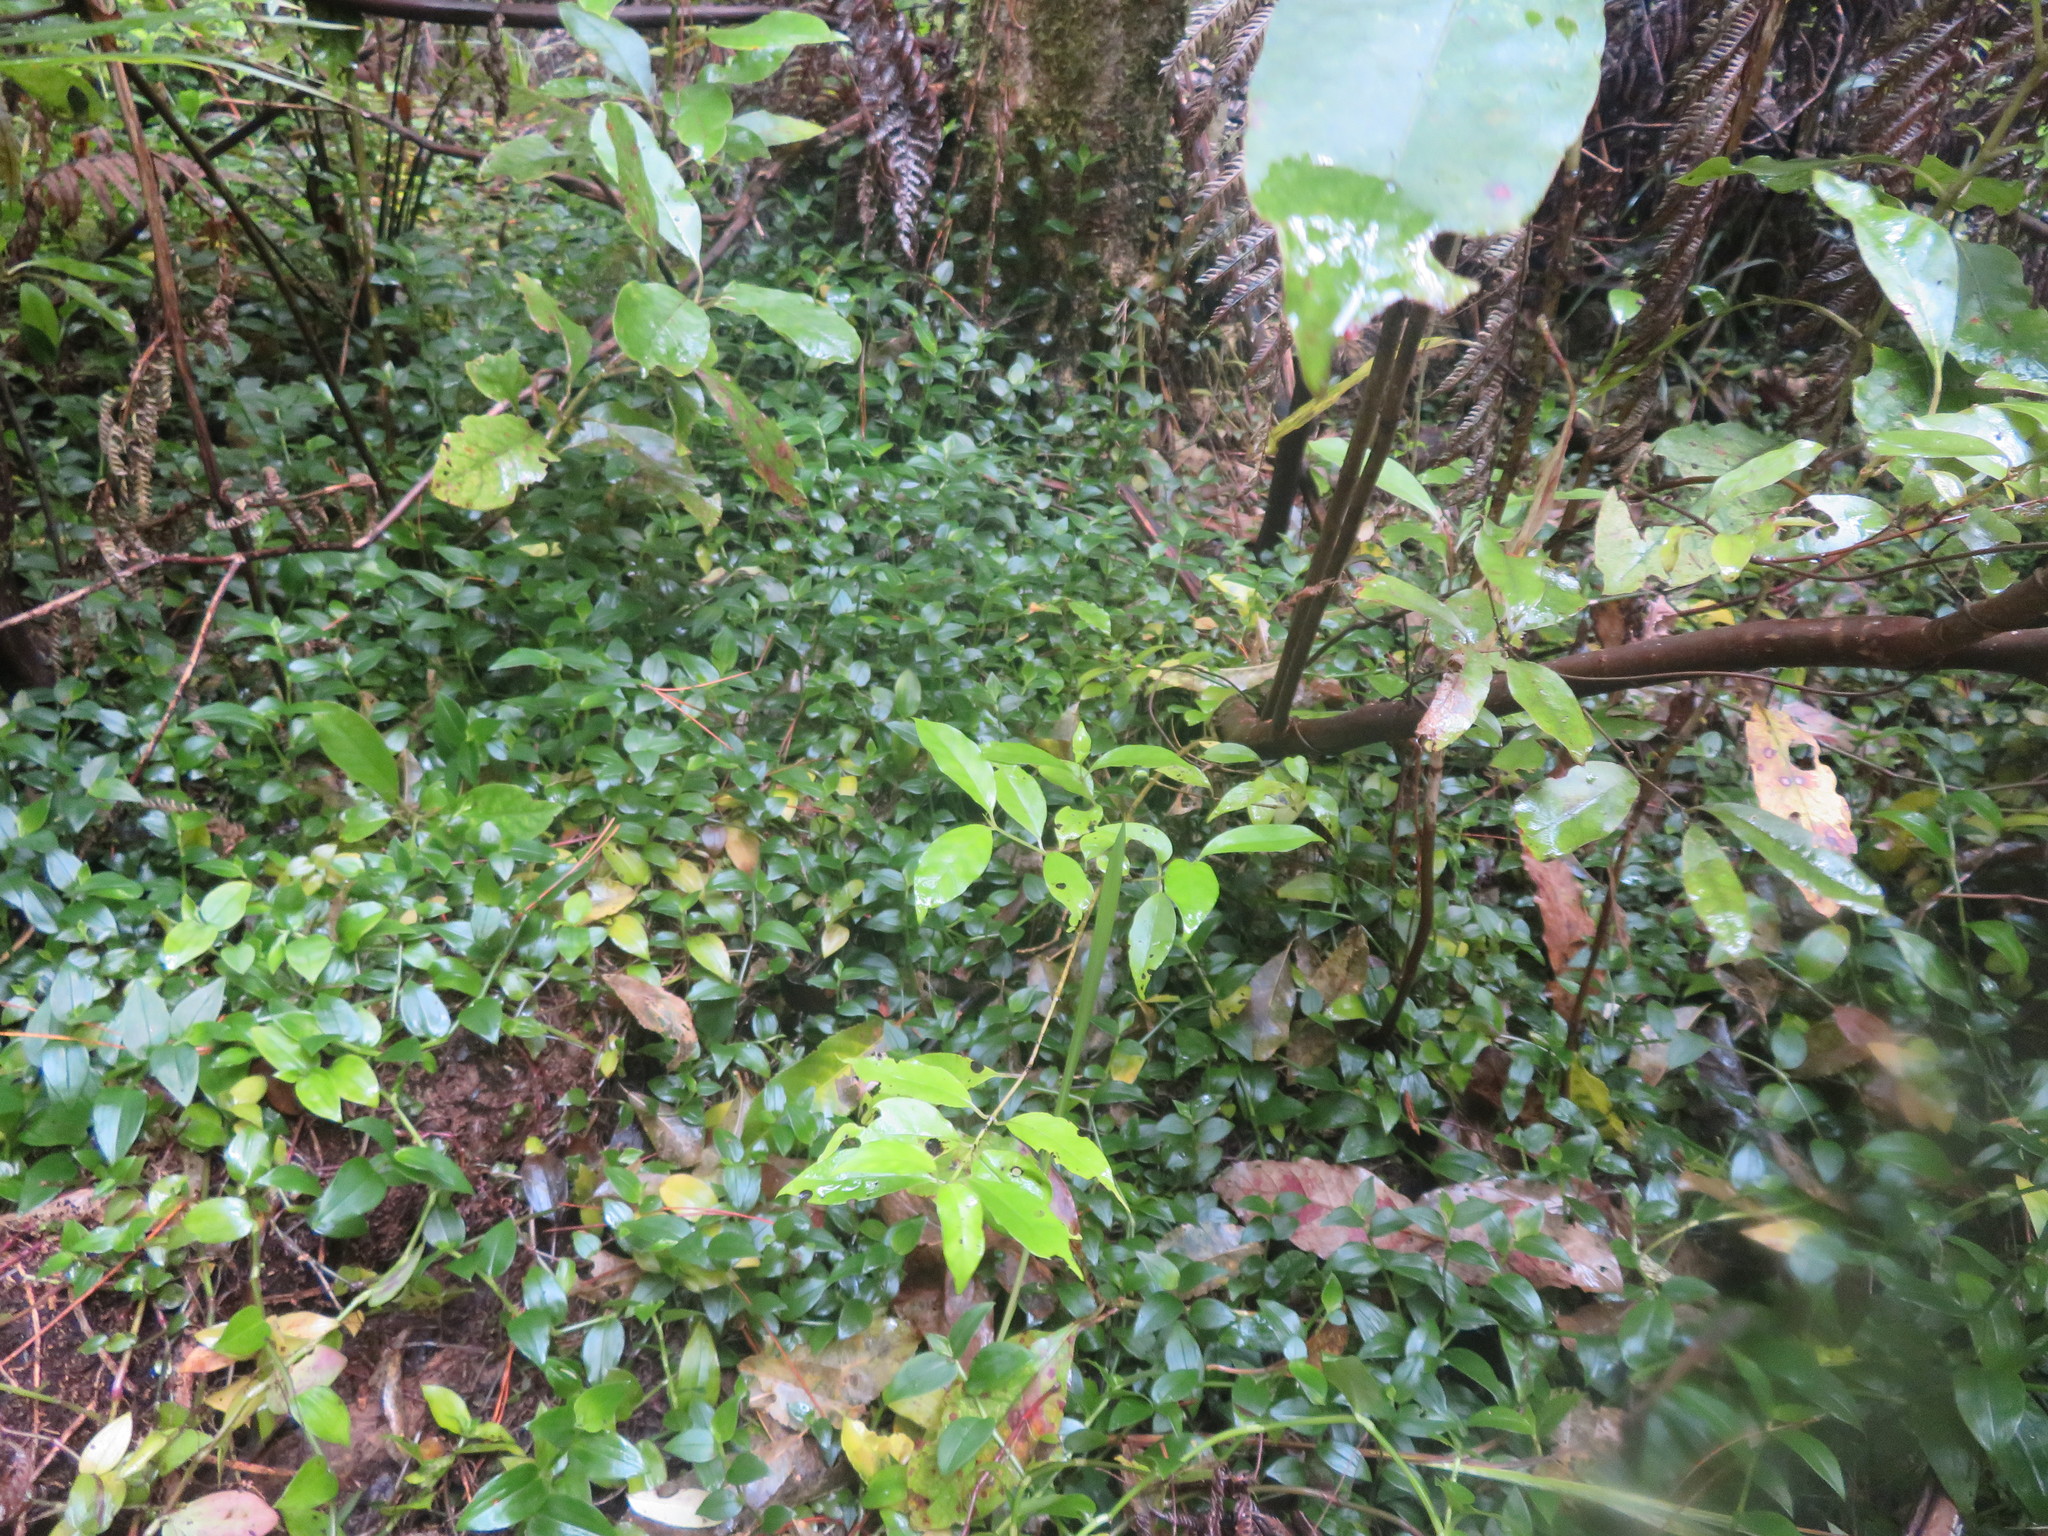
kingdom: Plantae
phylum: Tracheophyta
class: Magnoliopsida
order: Gentianales
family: Loganiaceae
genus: Geniostoma
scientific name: Geniostoma ligustrifolium
